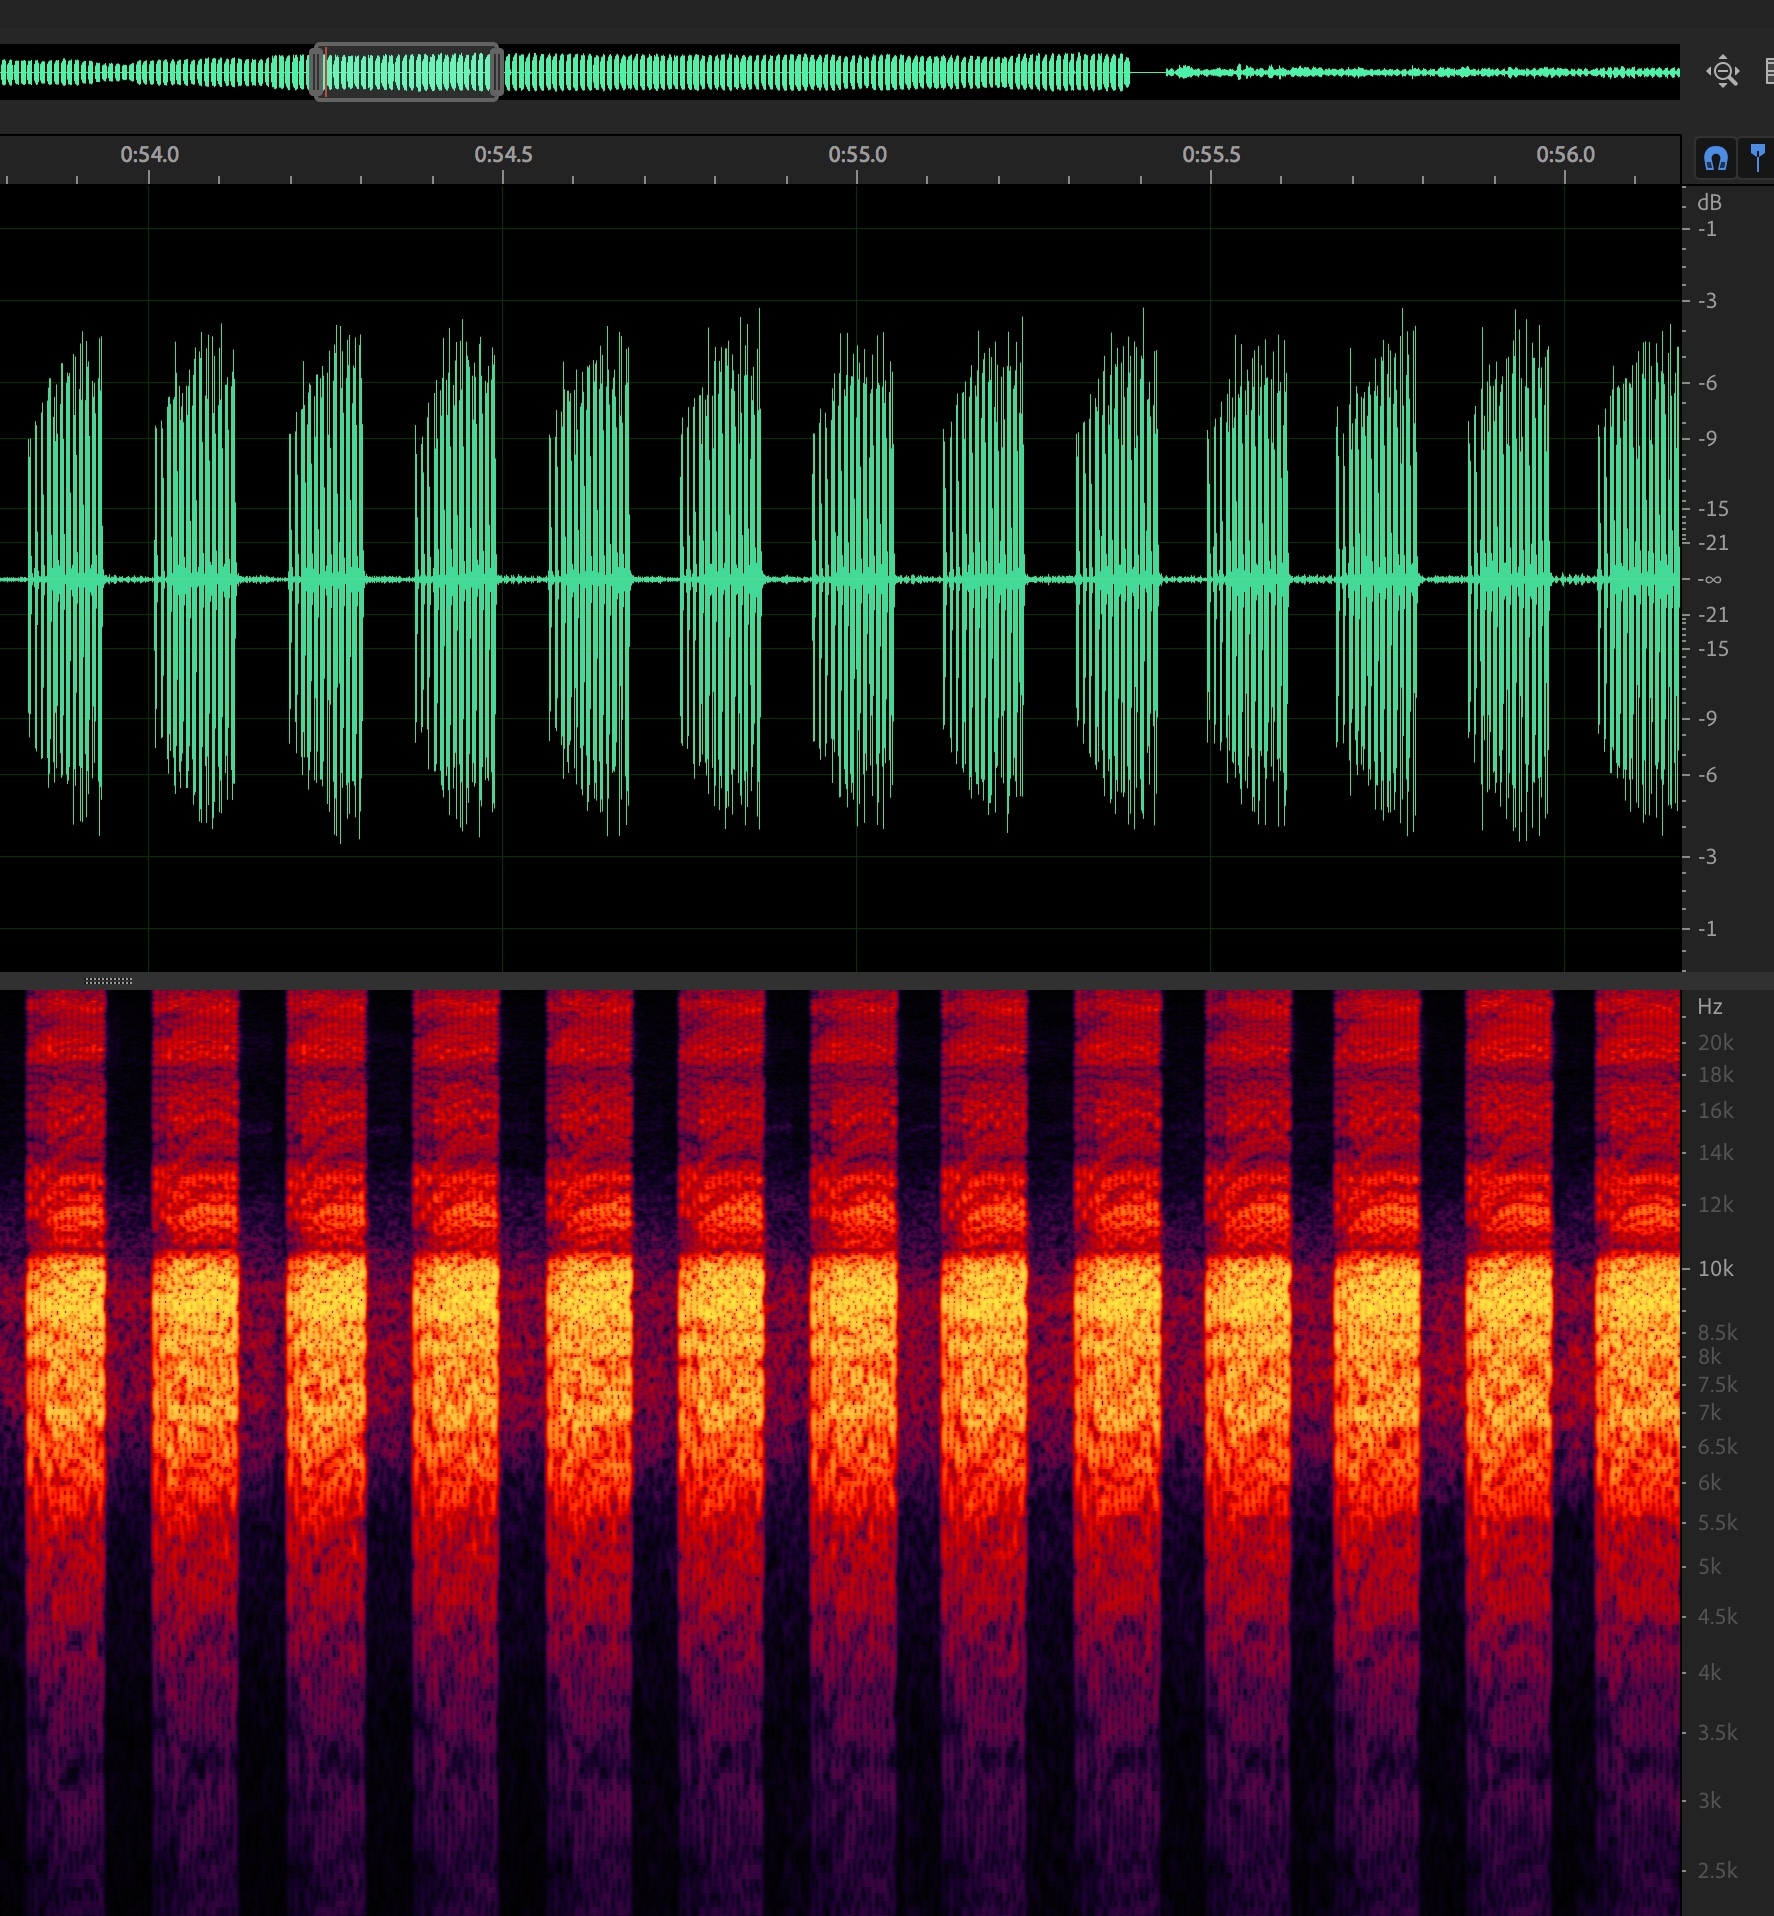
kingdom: Animalia
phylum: Arthropoda
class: Insecta
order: Hemiptera
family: Cicadidae
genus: Diceroprocta
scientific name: Diceroprocta texana
